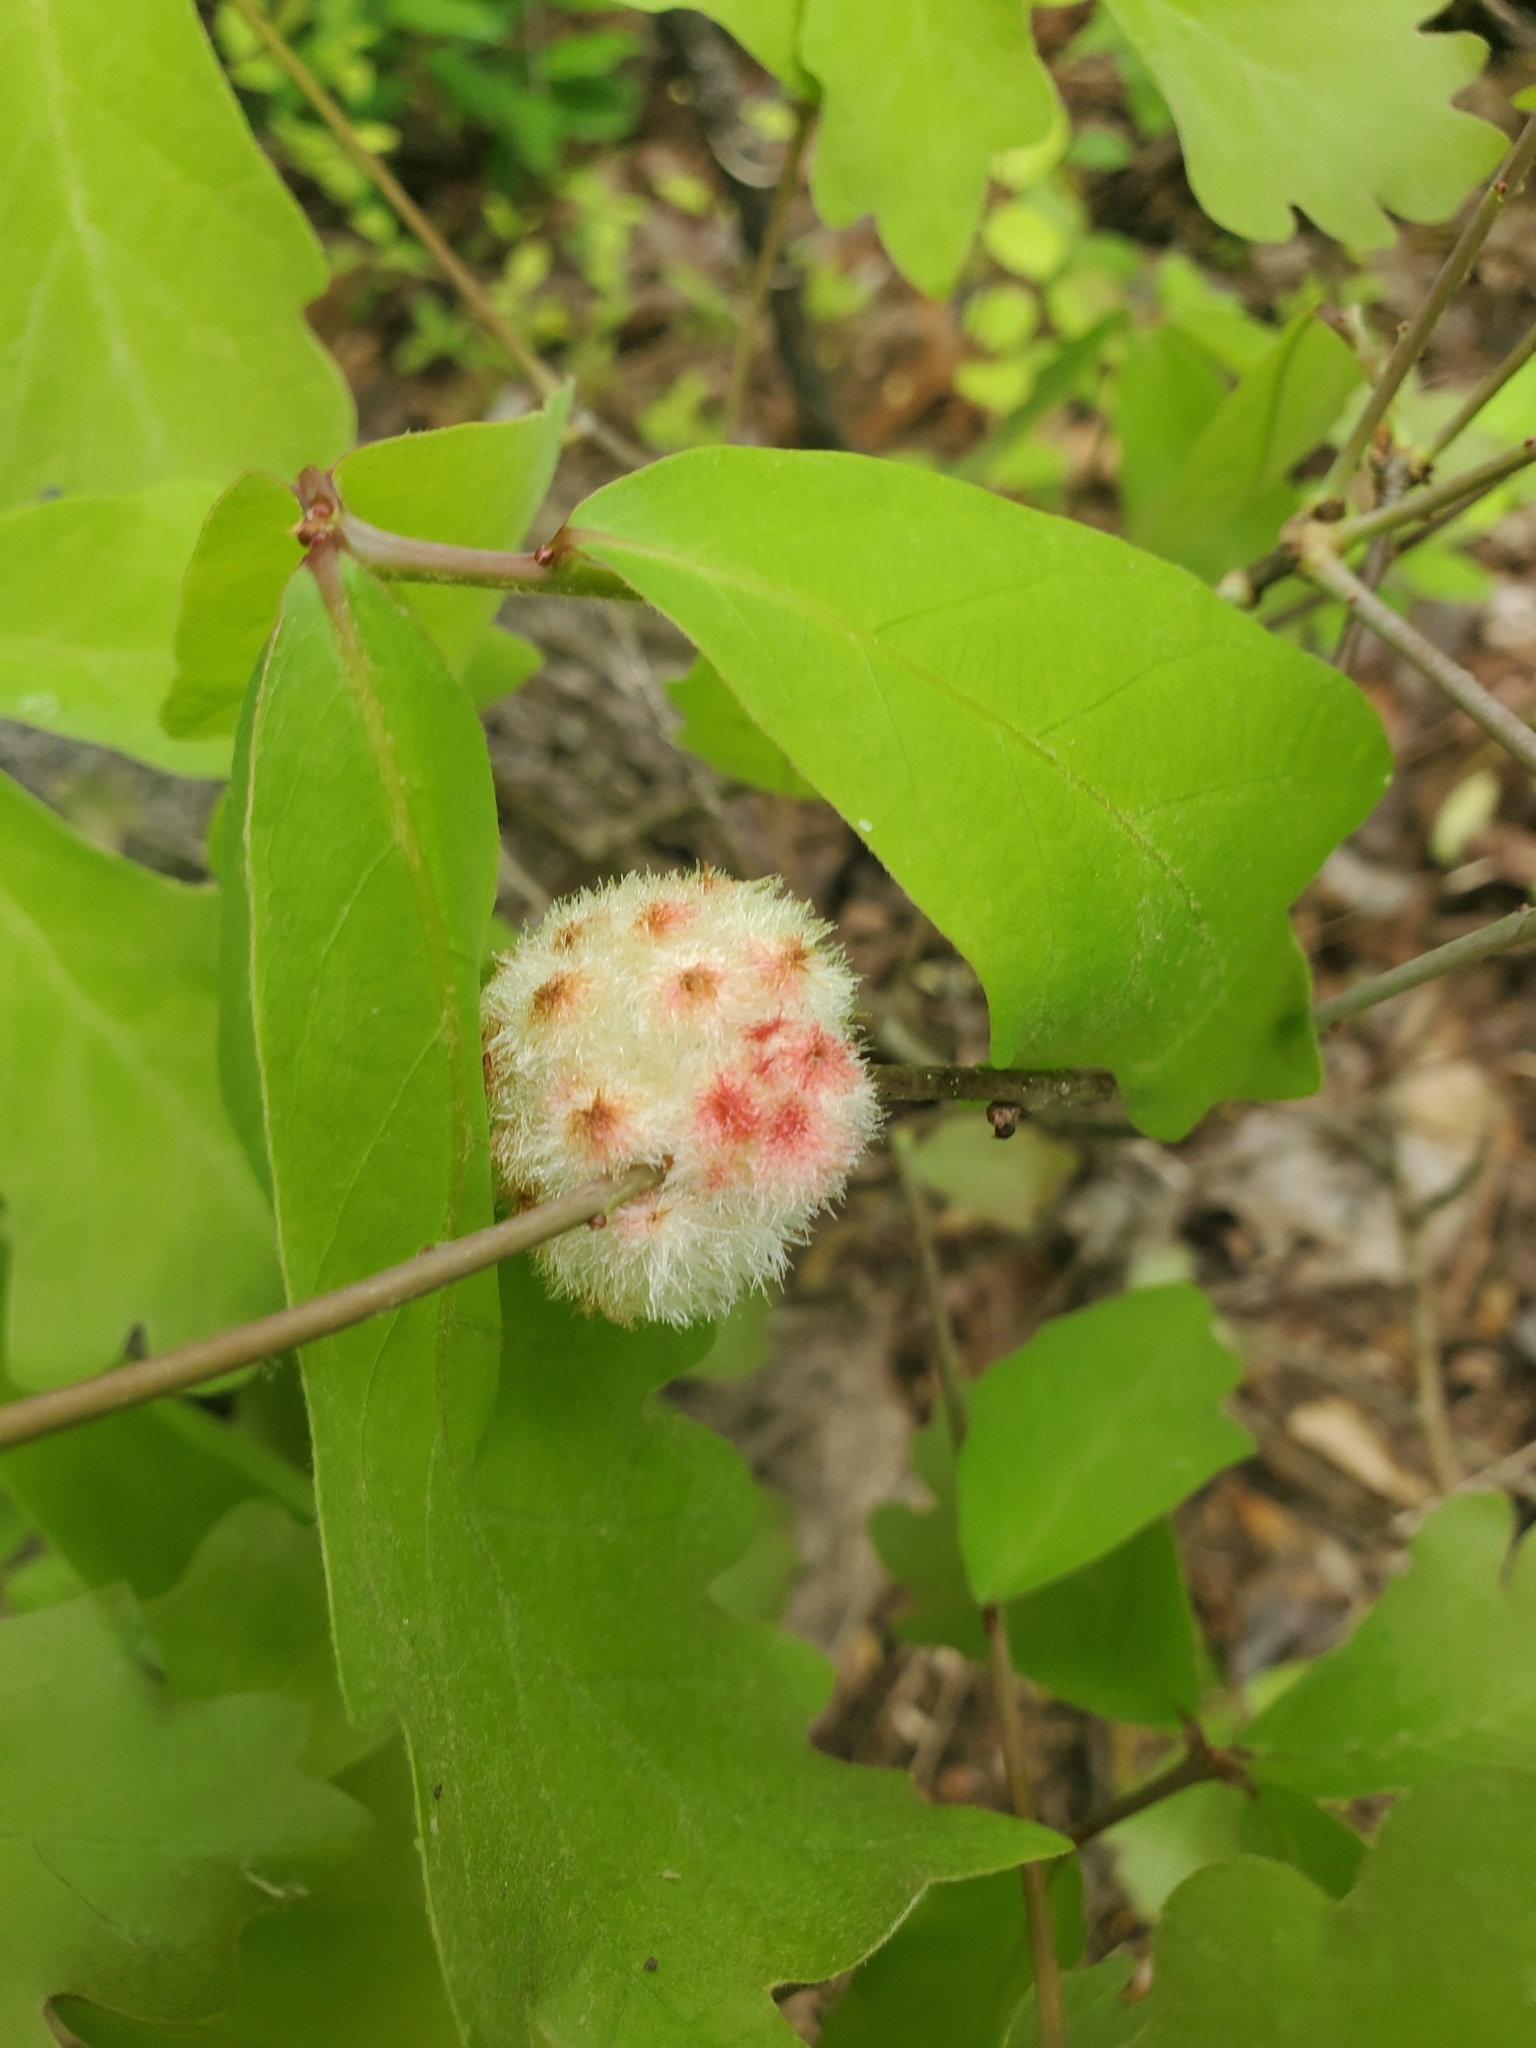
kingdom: Animalia
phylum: Arthropoda
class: Insecta
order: Hymenoptera
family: Cynipidae
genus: Callirhytis
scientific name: Callirhytis
